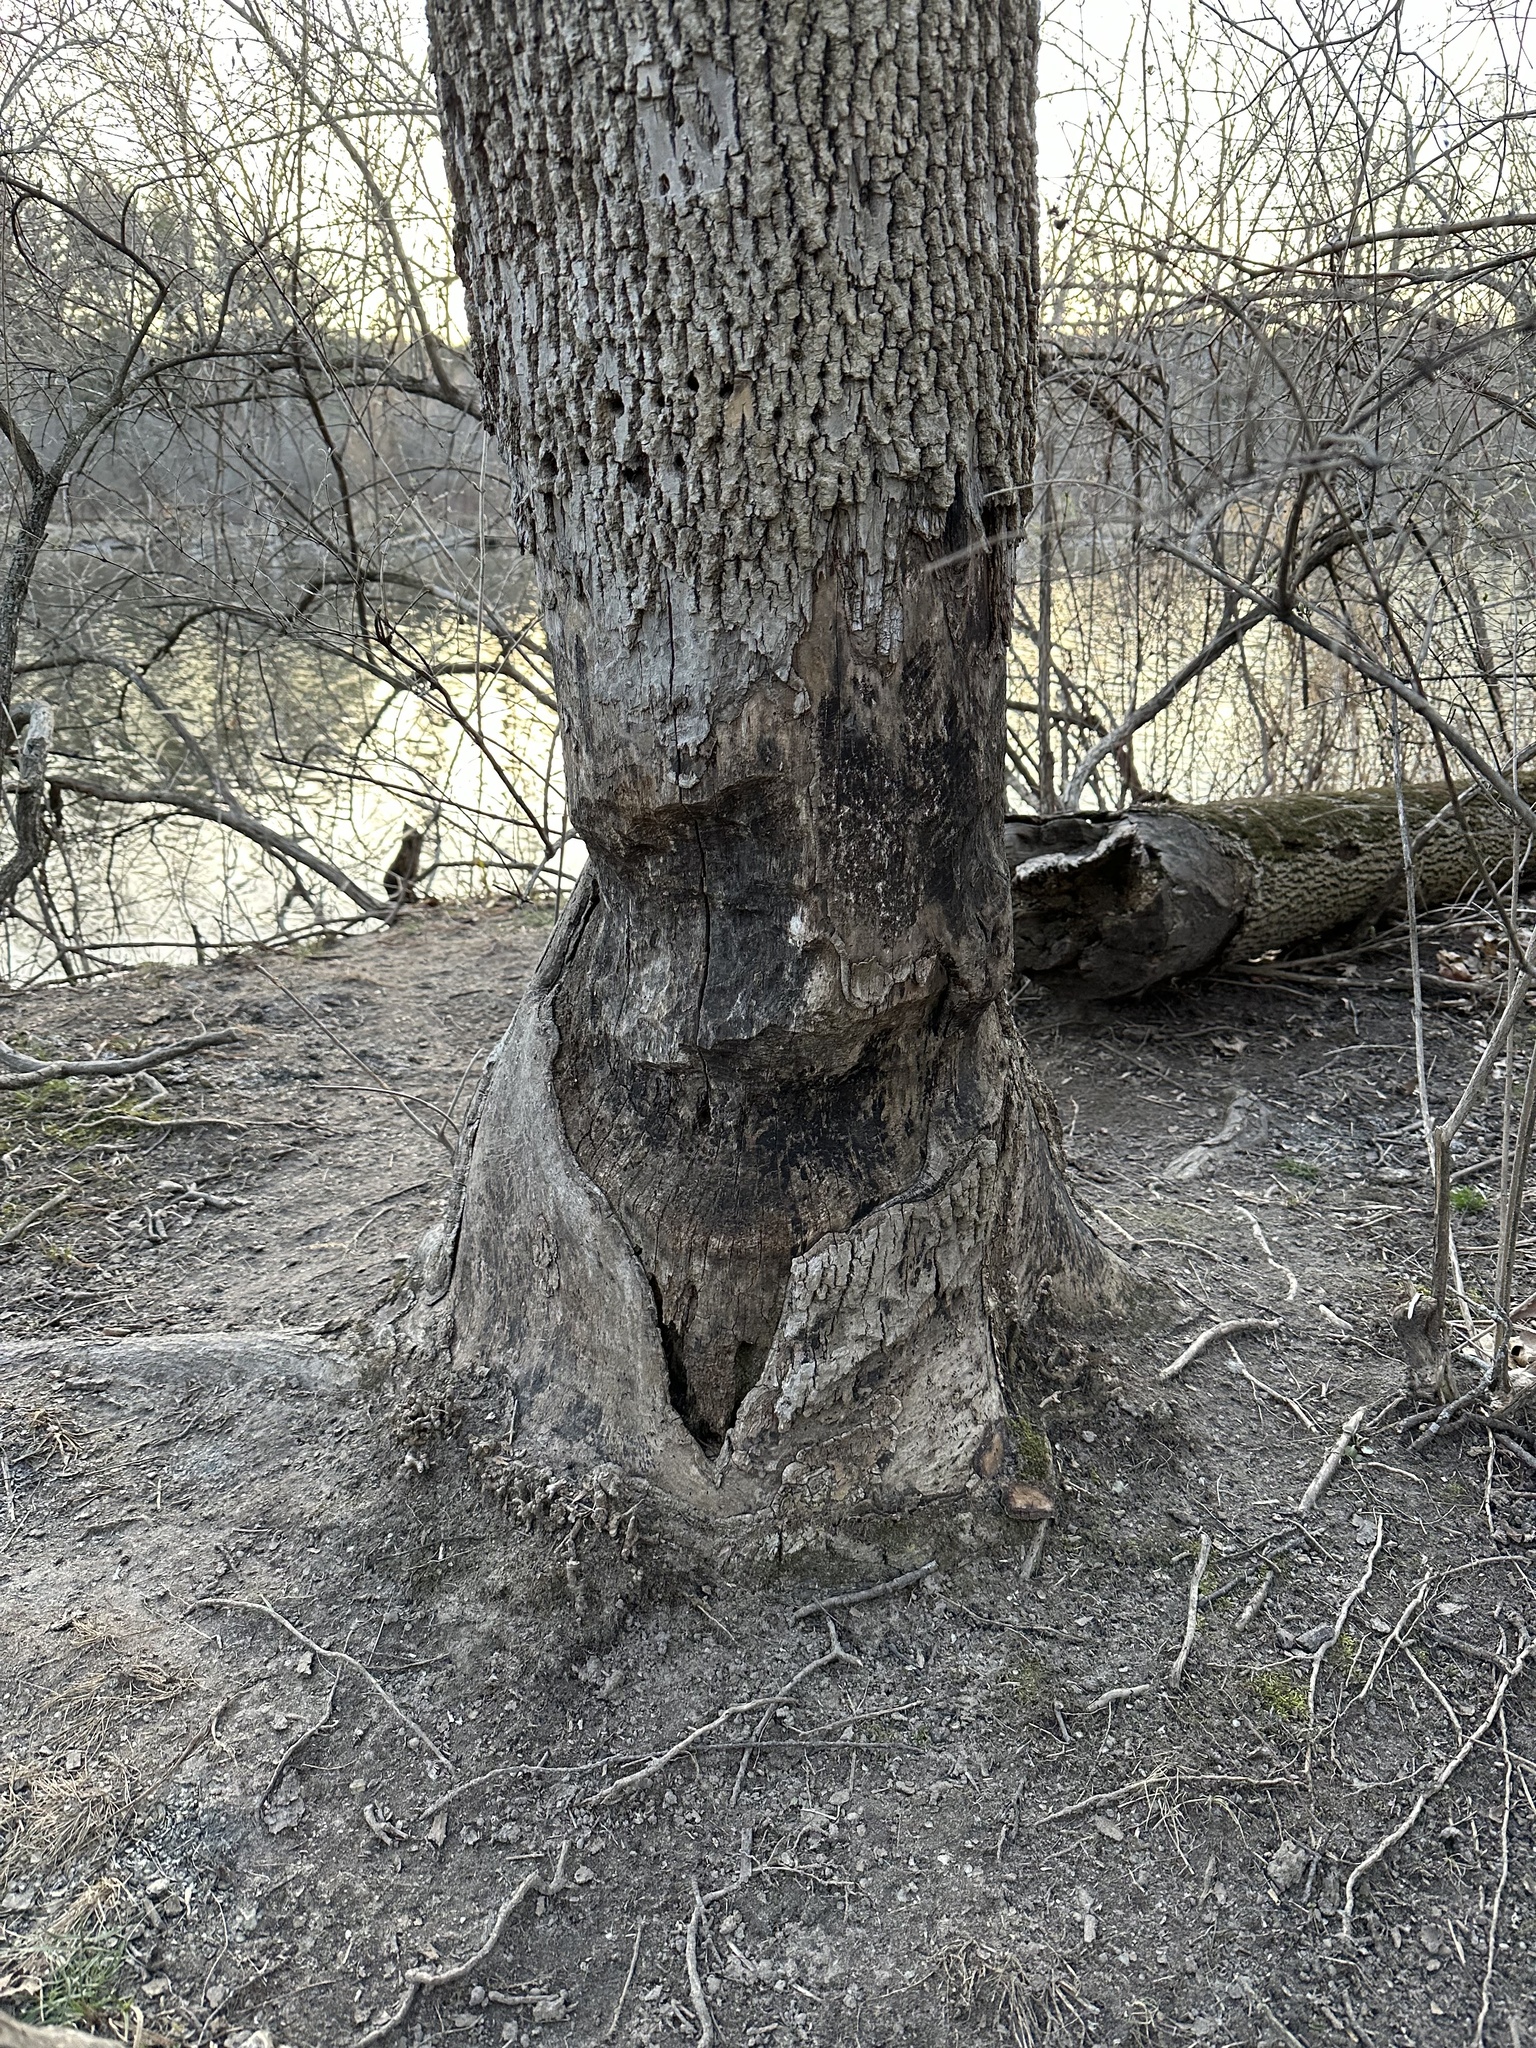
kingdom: Animalia
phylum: Chordata
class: Mammalia
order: Rodentia
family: Castoridae
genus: Castor
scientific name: Castor canadensis
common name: American beaver
